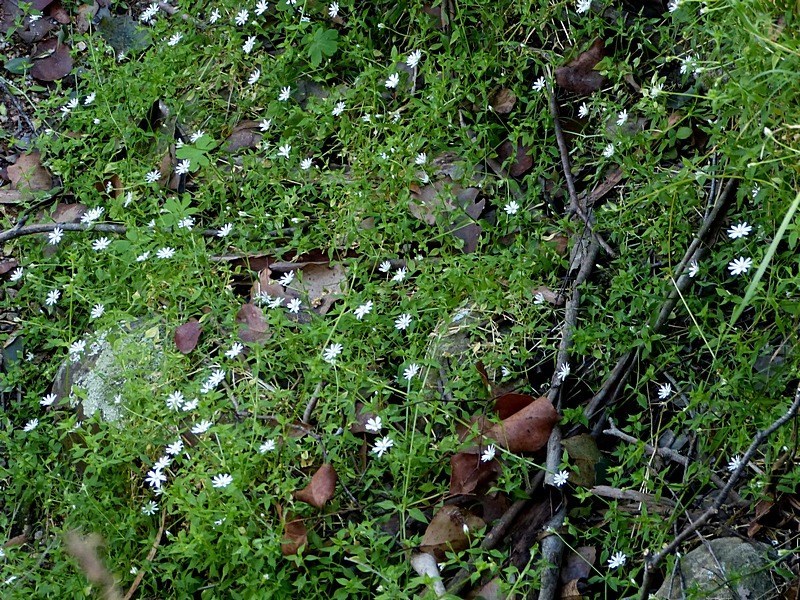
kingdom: Plantae
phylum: Tracheophyta
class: Magnoliopsida
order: Caryophyllales
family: Caryophyllaceae
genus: Stellaria
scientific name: Stellaria flaccida
